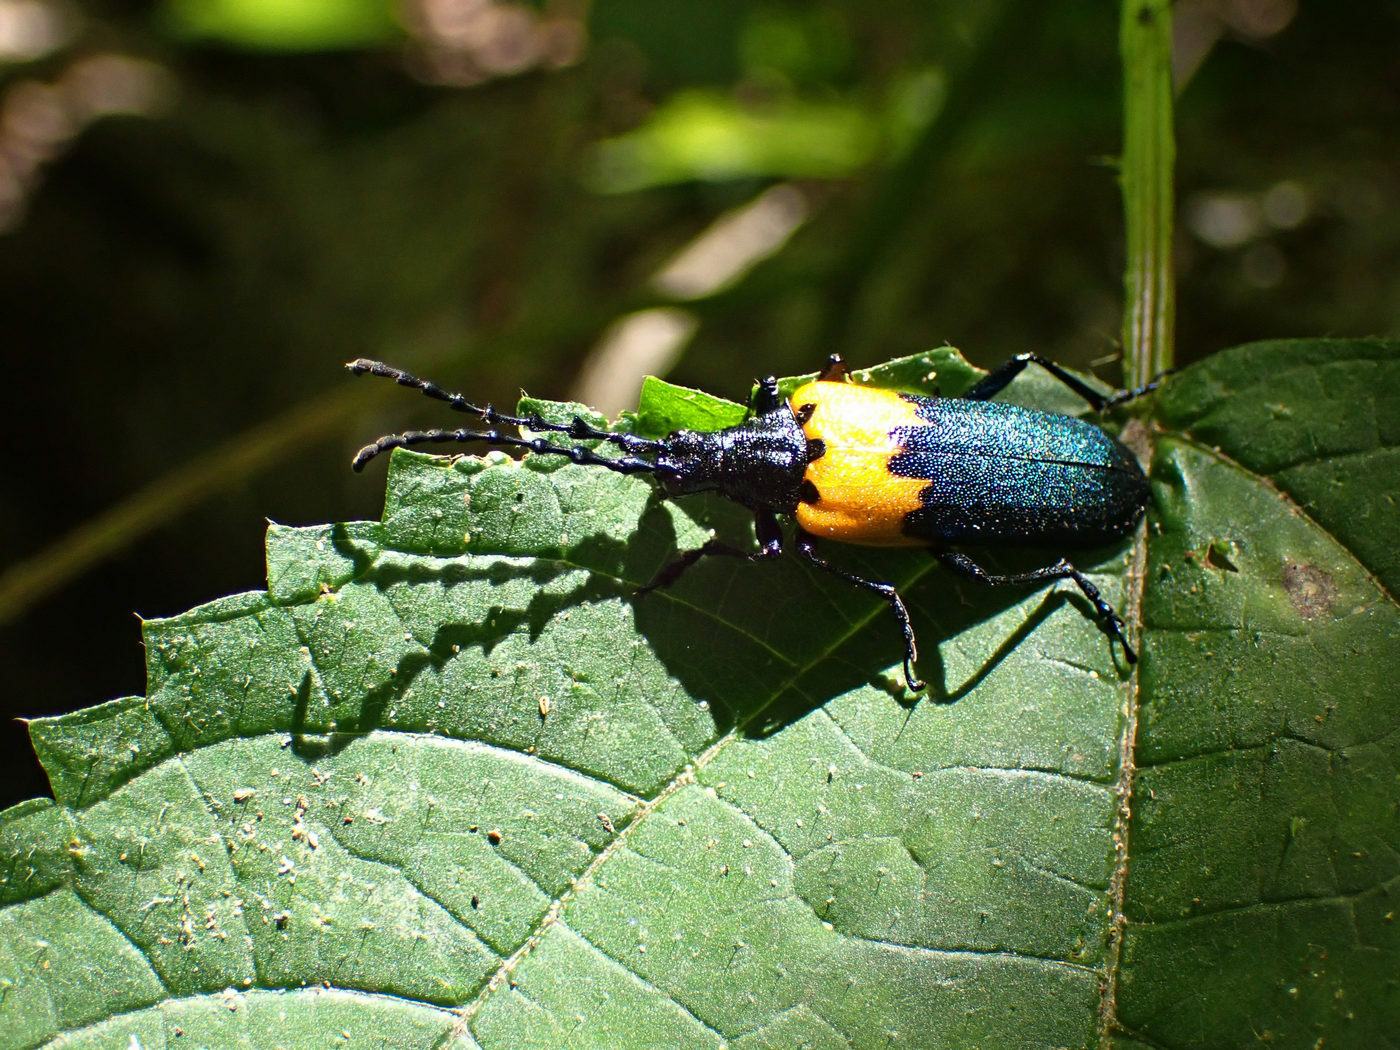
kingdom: Animalia
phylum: Arthropoda
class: Insecta
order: Coleoptera
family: Cerambycidae
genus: Desmocerus
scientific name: Desmocerus palliatus
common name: Eastern elderberry borer
